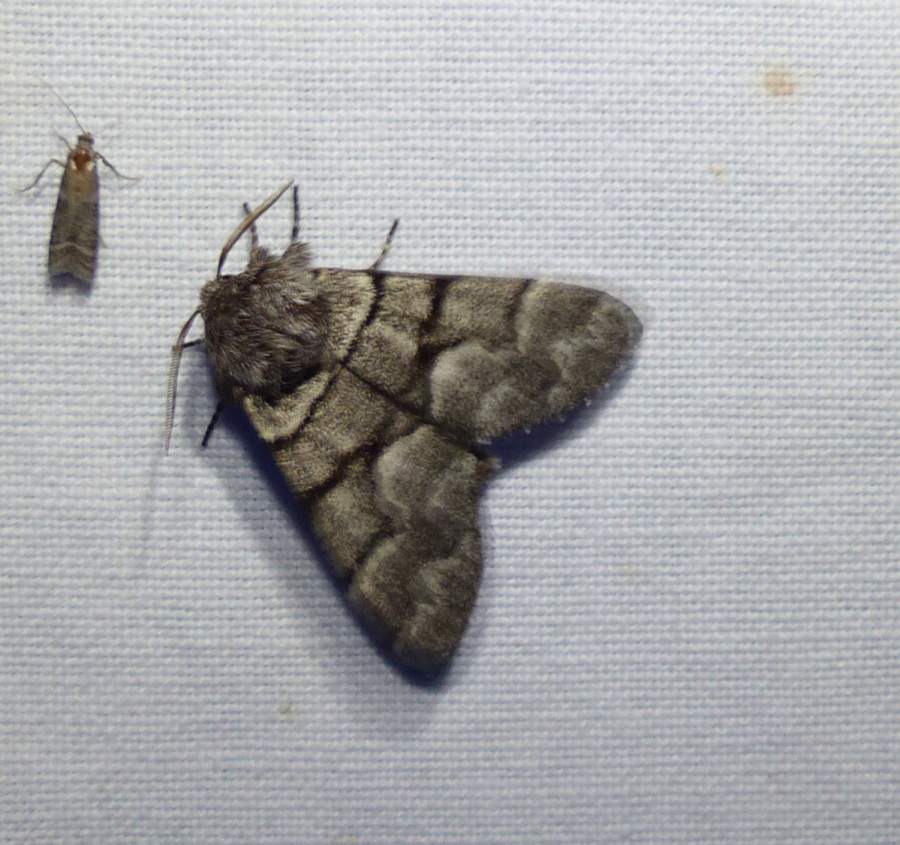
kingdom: Animalia
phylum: Arthropoda
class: Insecta
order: Lepidoptera
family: Noctuidae
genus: Panthea
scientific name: Panthea furcilla
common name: Eastern panthea moth
